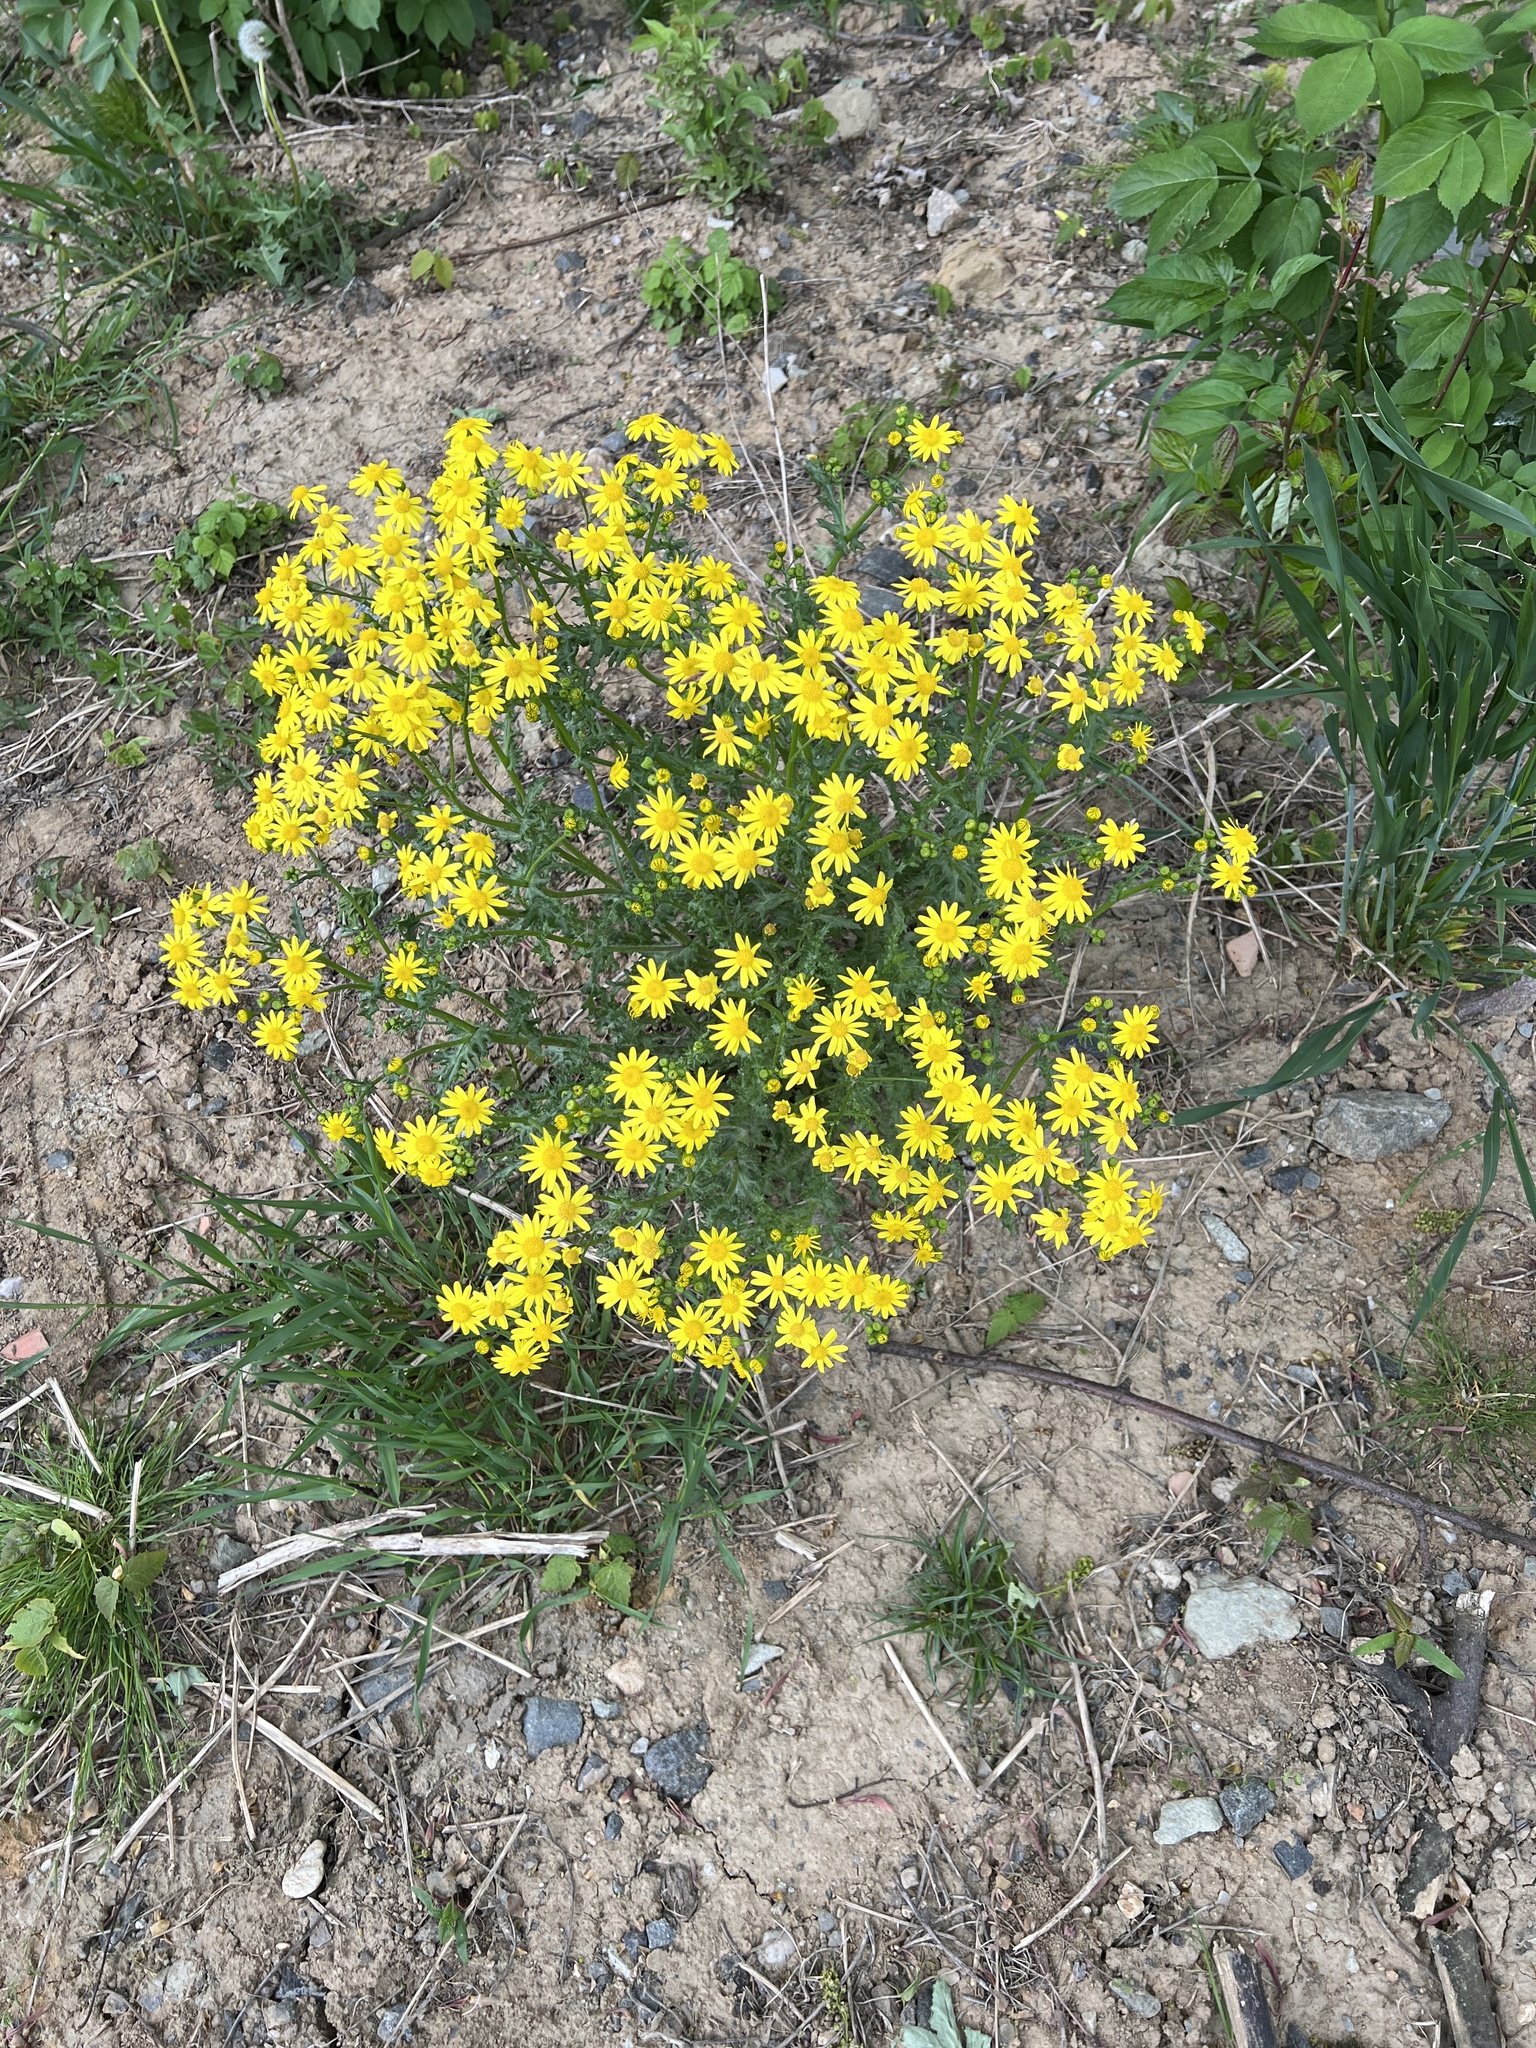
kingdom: Plantae
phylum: Tracheophyta
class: Magnoliopsida
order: Asterales
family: Asteraceae
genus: Senecio
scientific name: Senecio vernalis
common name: Eastern groundsel
